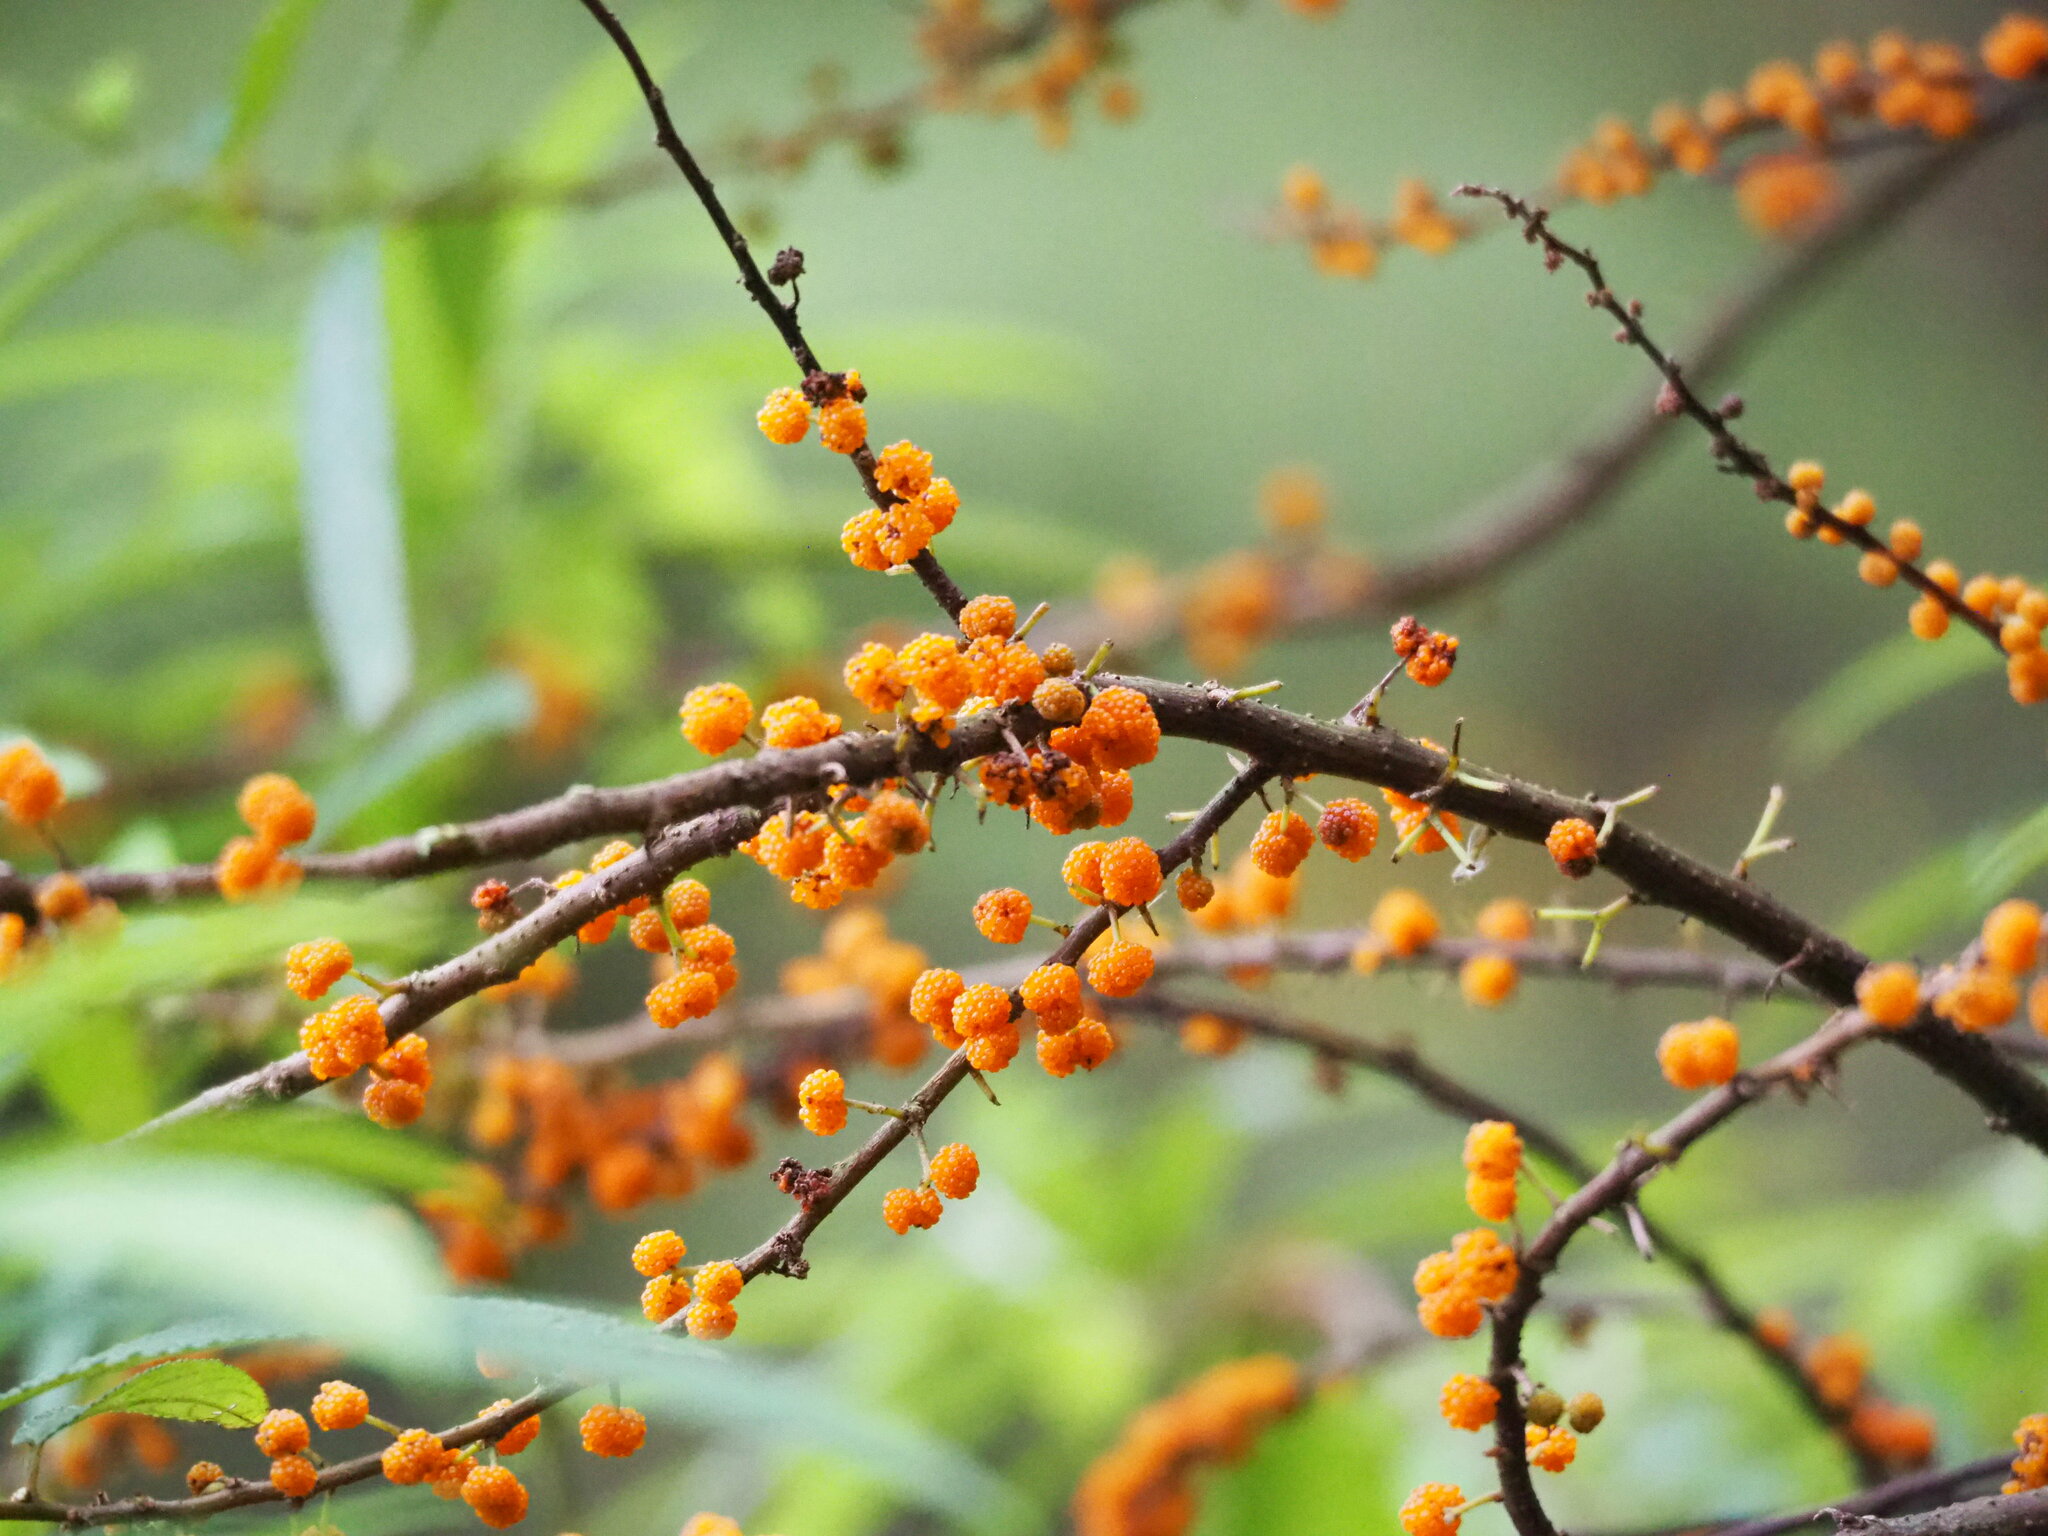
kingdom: Plantae
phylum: Tracheophyta
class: Magnoliopsida
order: Rosales
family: Urticaceae
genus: Debregeasia
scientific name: Debregeasia orientalis
